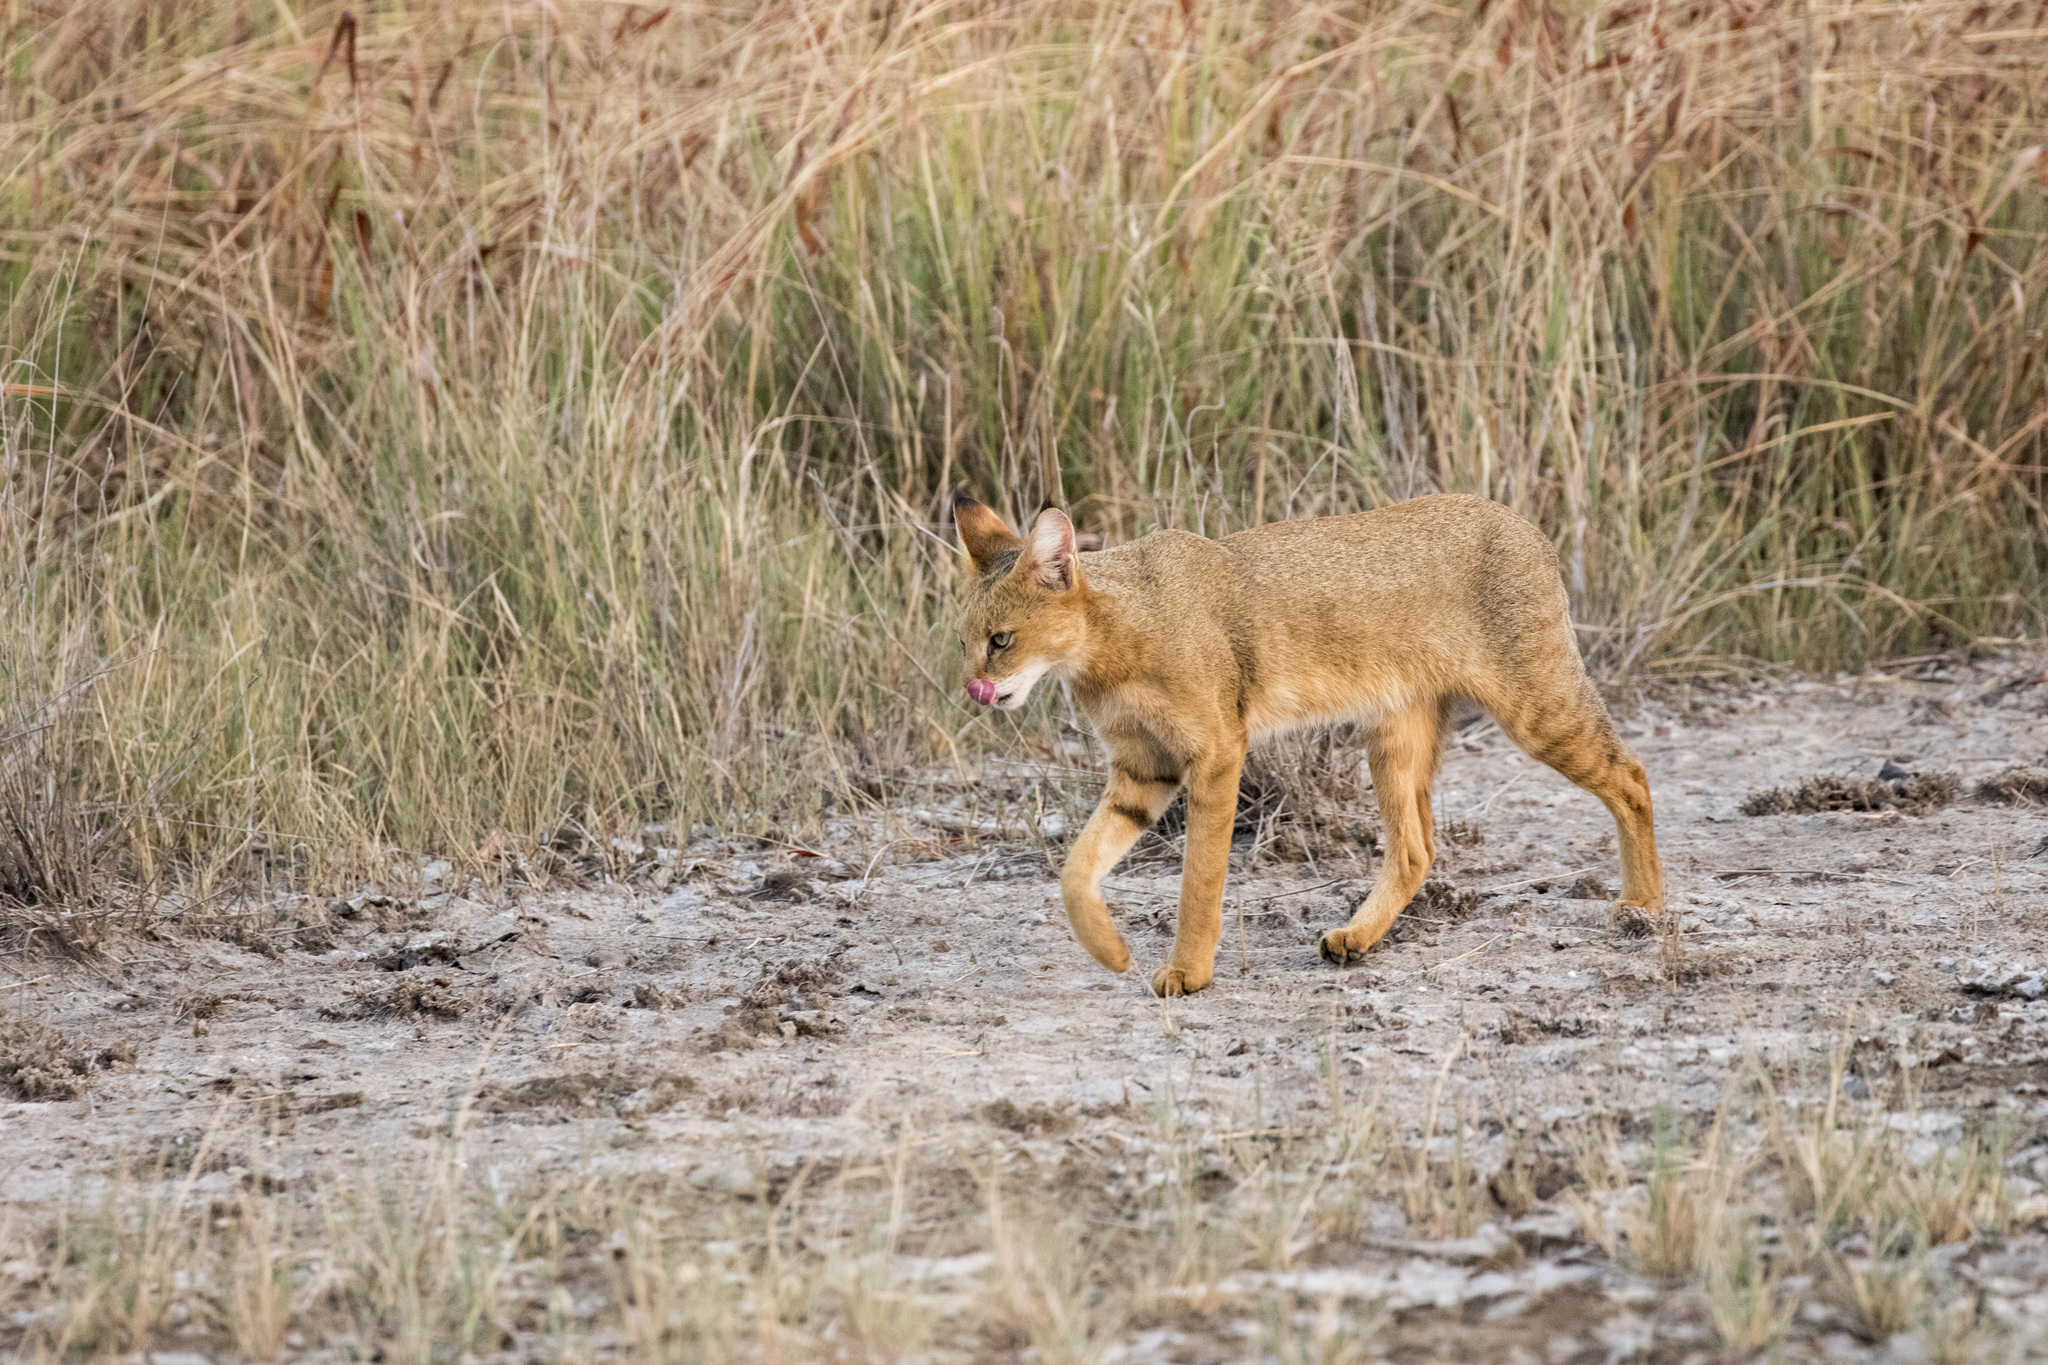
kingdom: Animalia
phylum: Chordata
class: Mammalia
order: Carnivora
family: Felidae
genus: Felis
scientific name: Felis chaus
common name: Jungle cat
